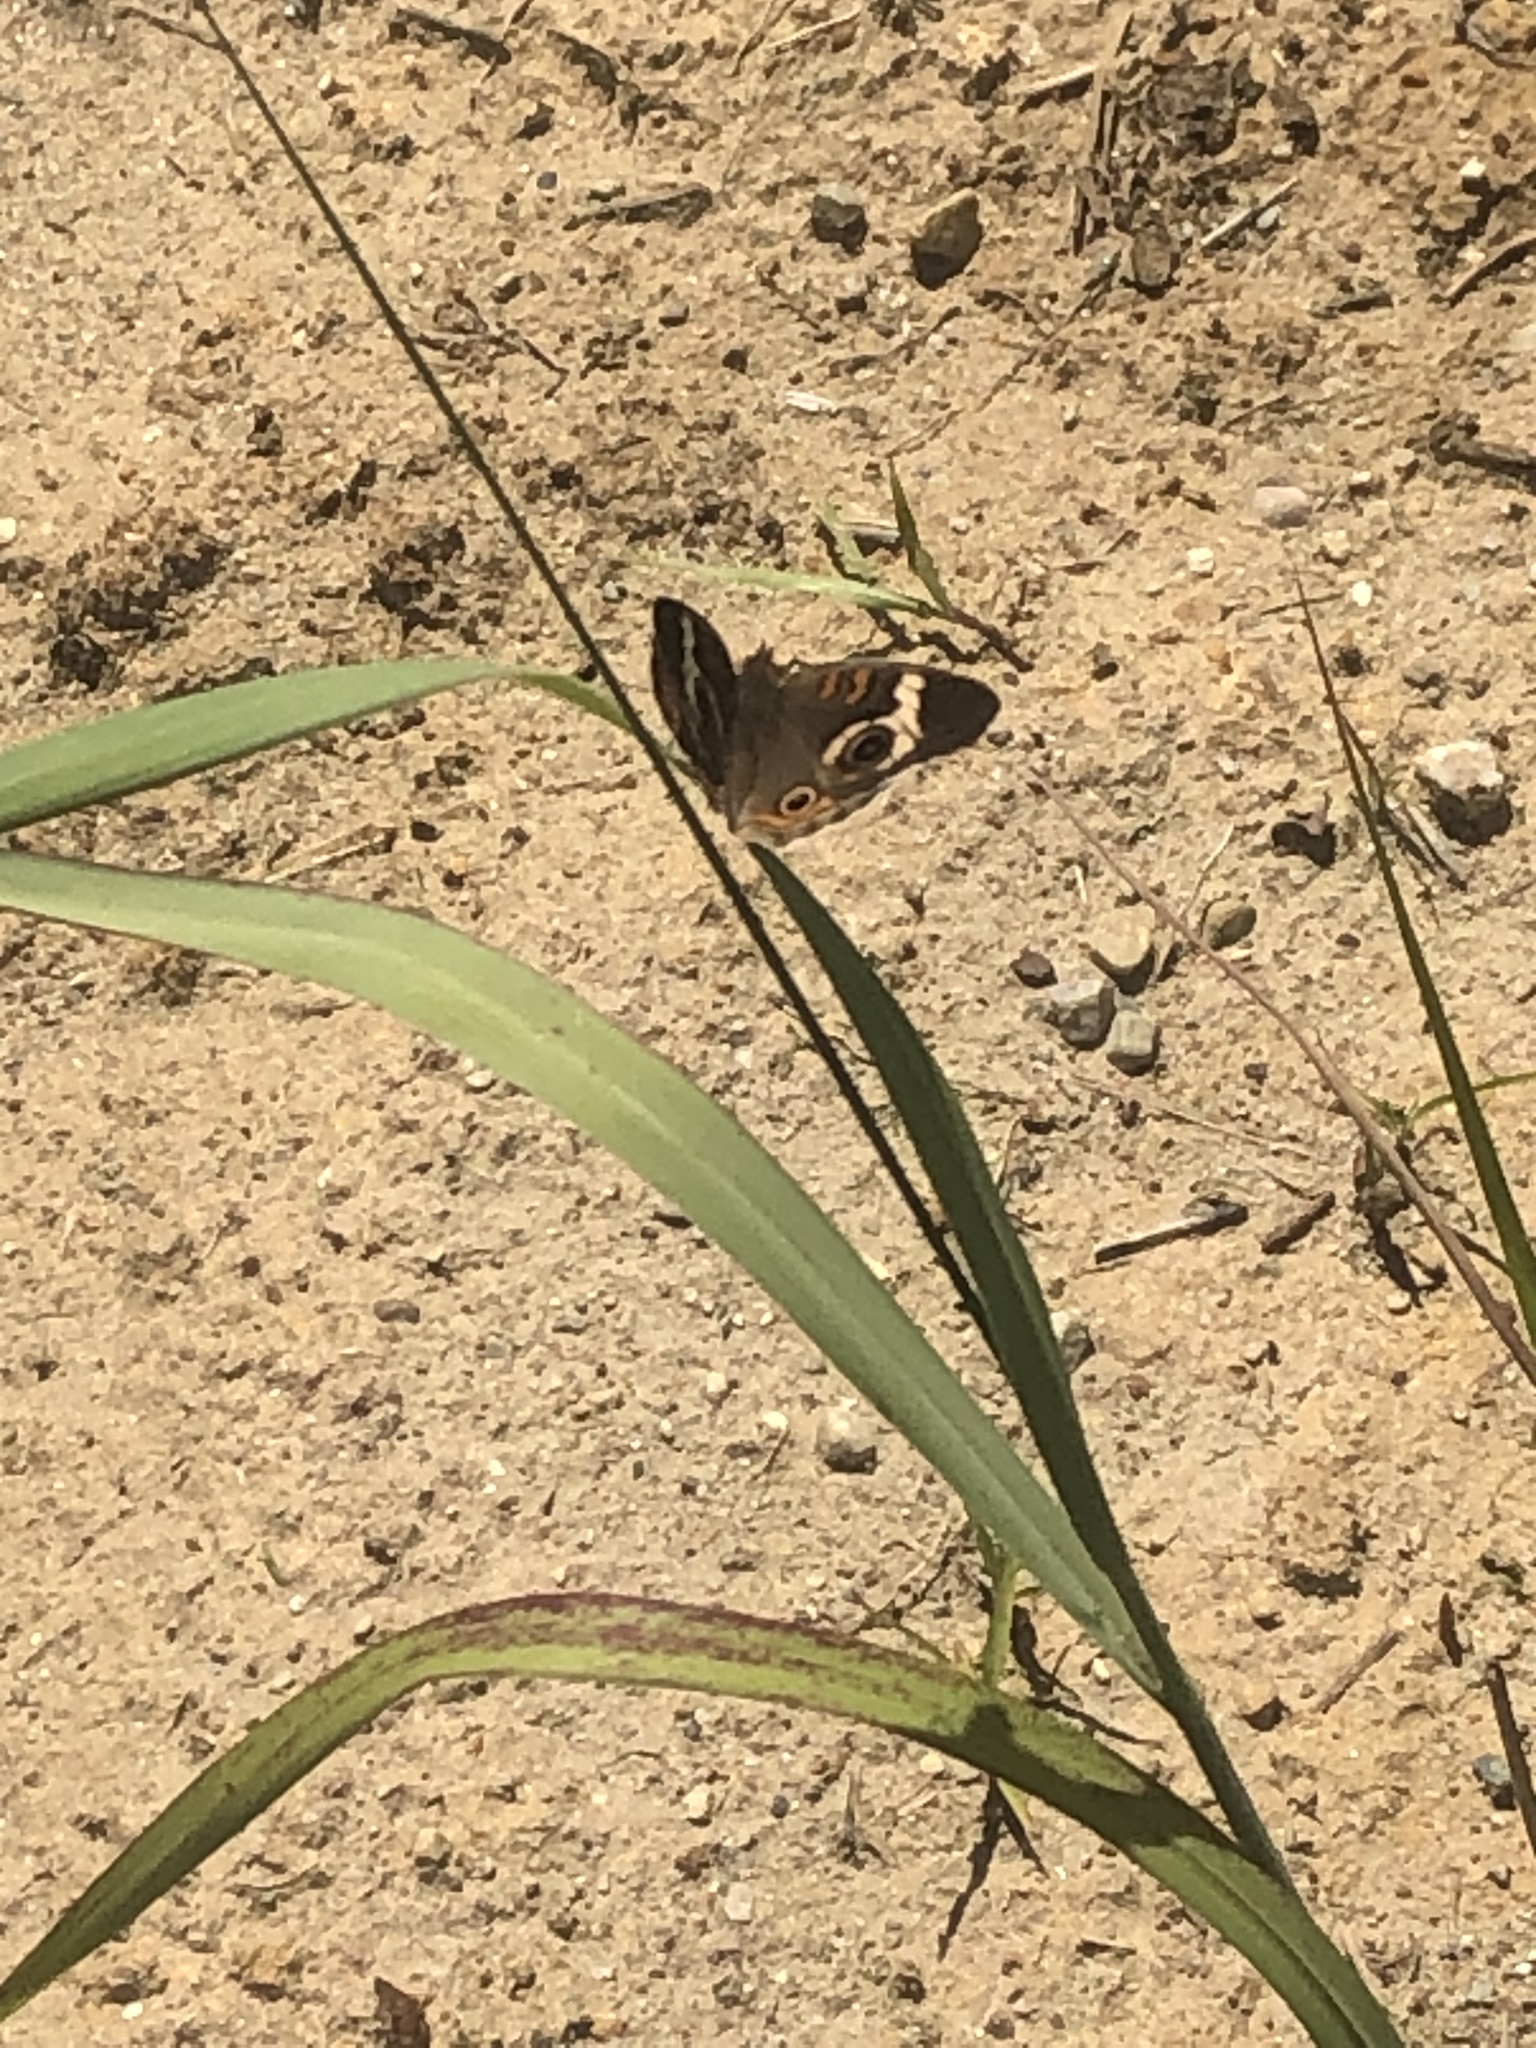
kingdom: Animalia
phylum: Arthropoda
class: Insecta
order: Lepidoptera
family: Nymphalidae
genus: Junonia
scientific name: Junonia coenia
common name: Common buckeye
